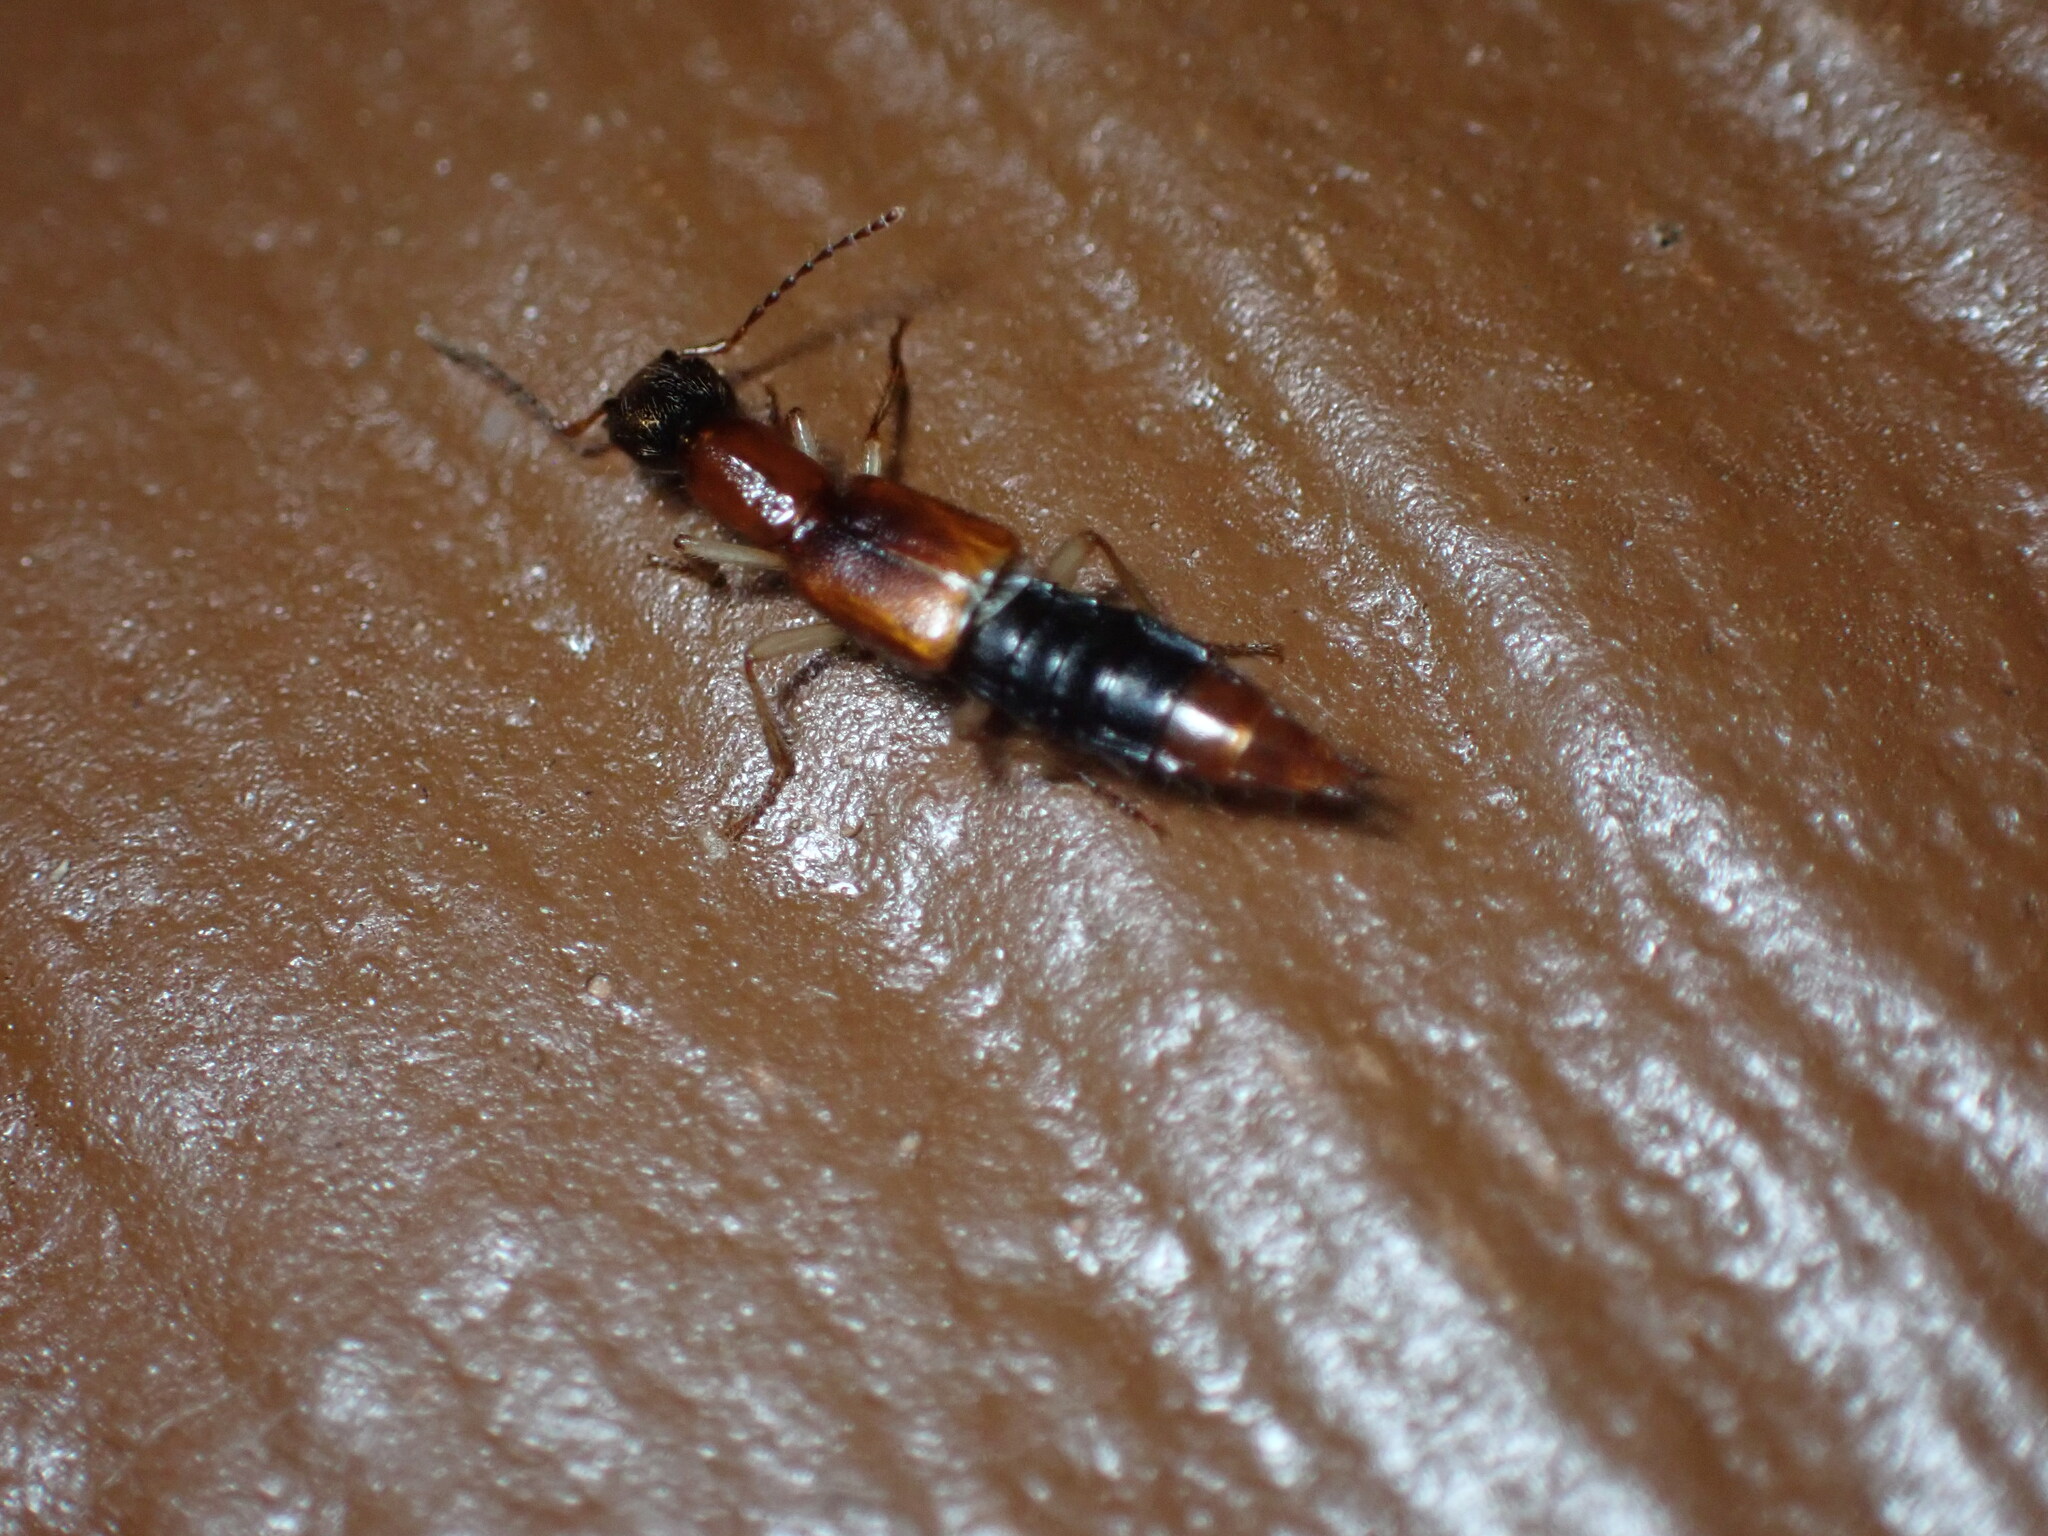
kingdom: Animalia
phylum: Arthropoda
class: Insecta
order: Coleoptera
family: Staphylinidae
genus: Homaeotarsus
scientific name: Homaeotarsus bicolor
